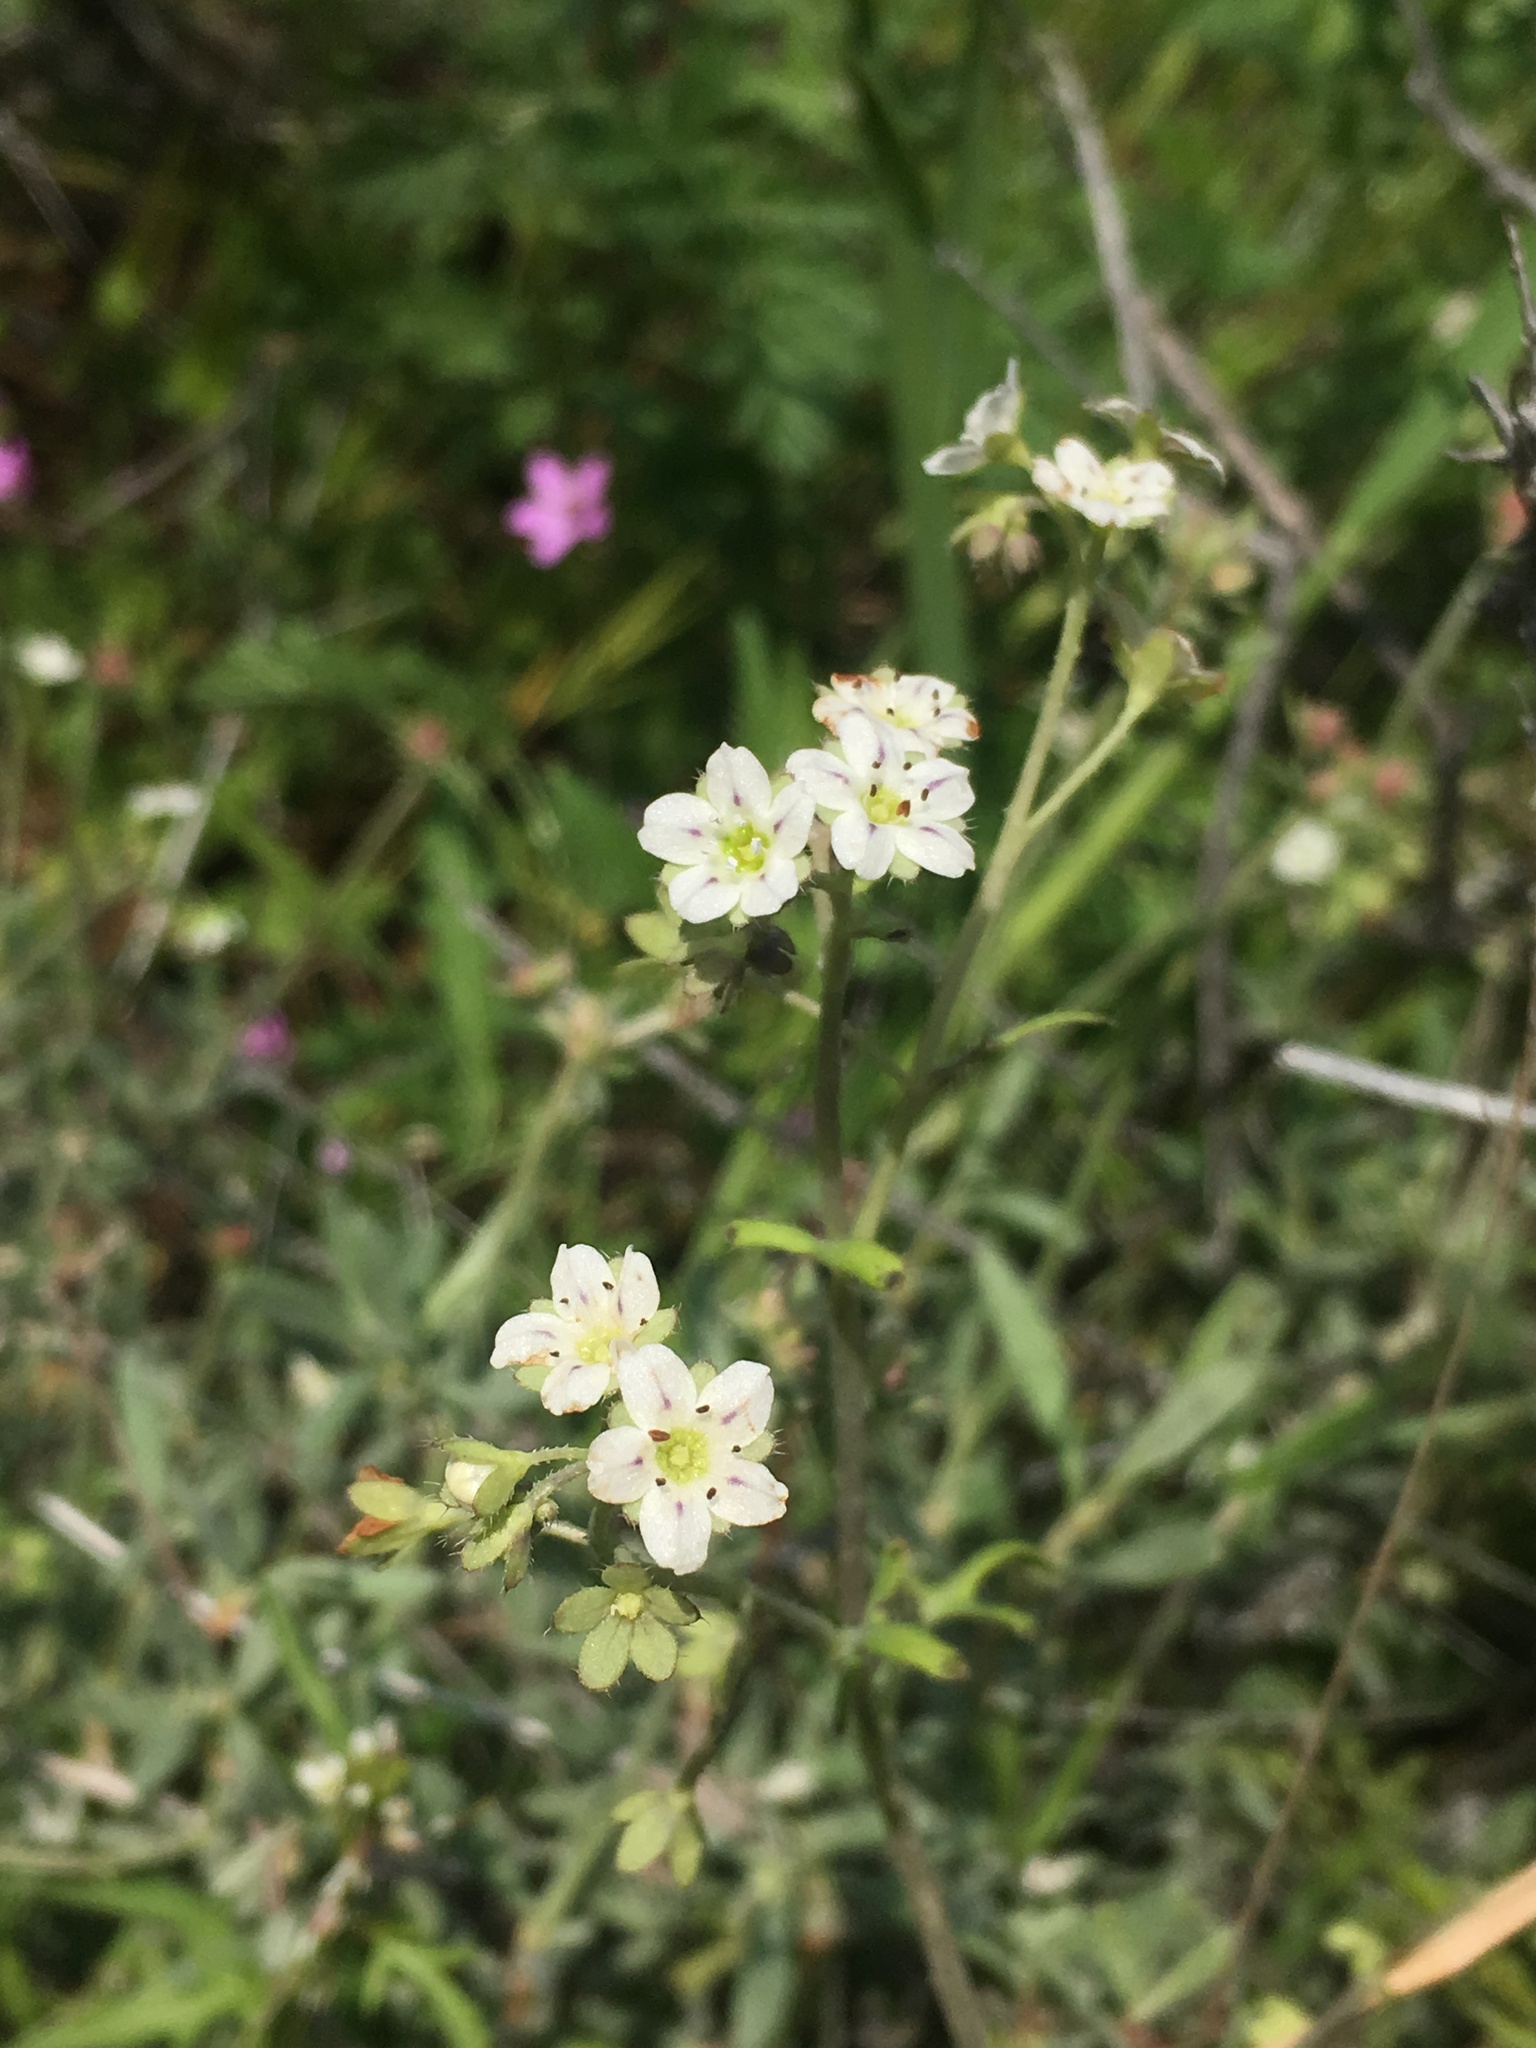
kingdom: Plantae
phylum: Tracheophyta
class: Magnoliopsida
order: Boraginales
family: Hydrophyllaceae
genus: Pholistoma
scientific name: Pholistoma membranaceum
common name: White fiesta-flower
